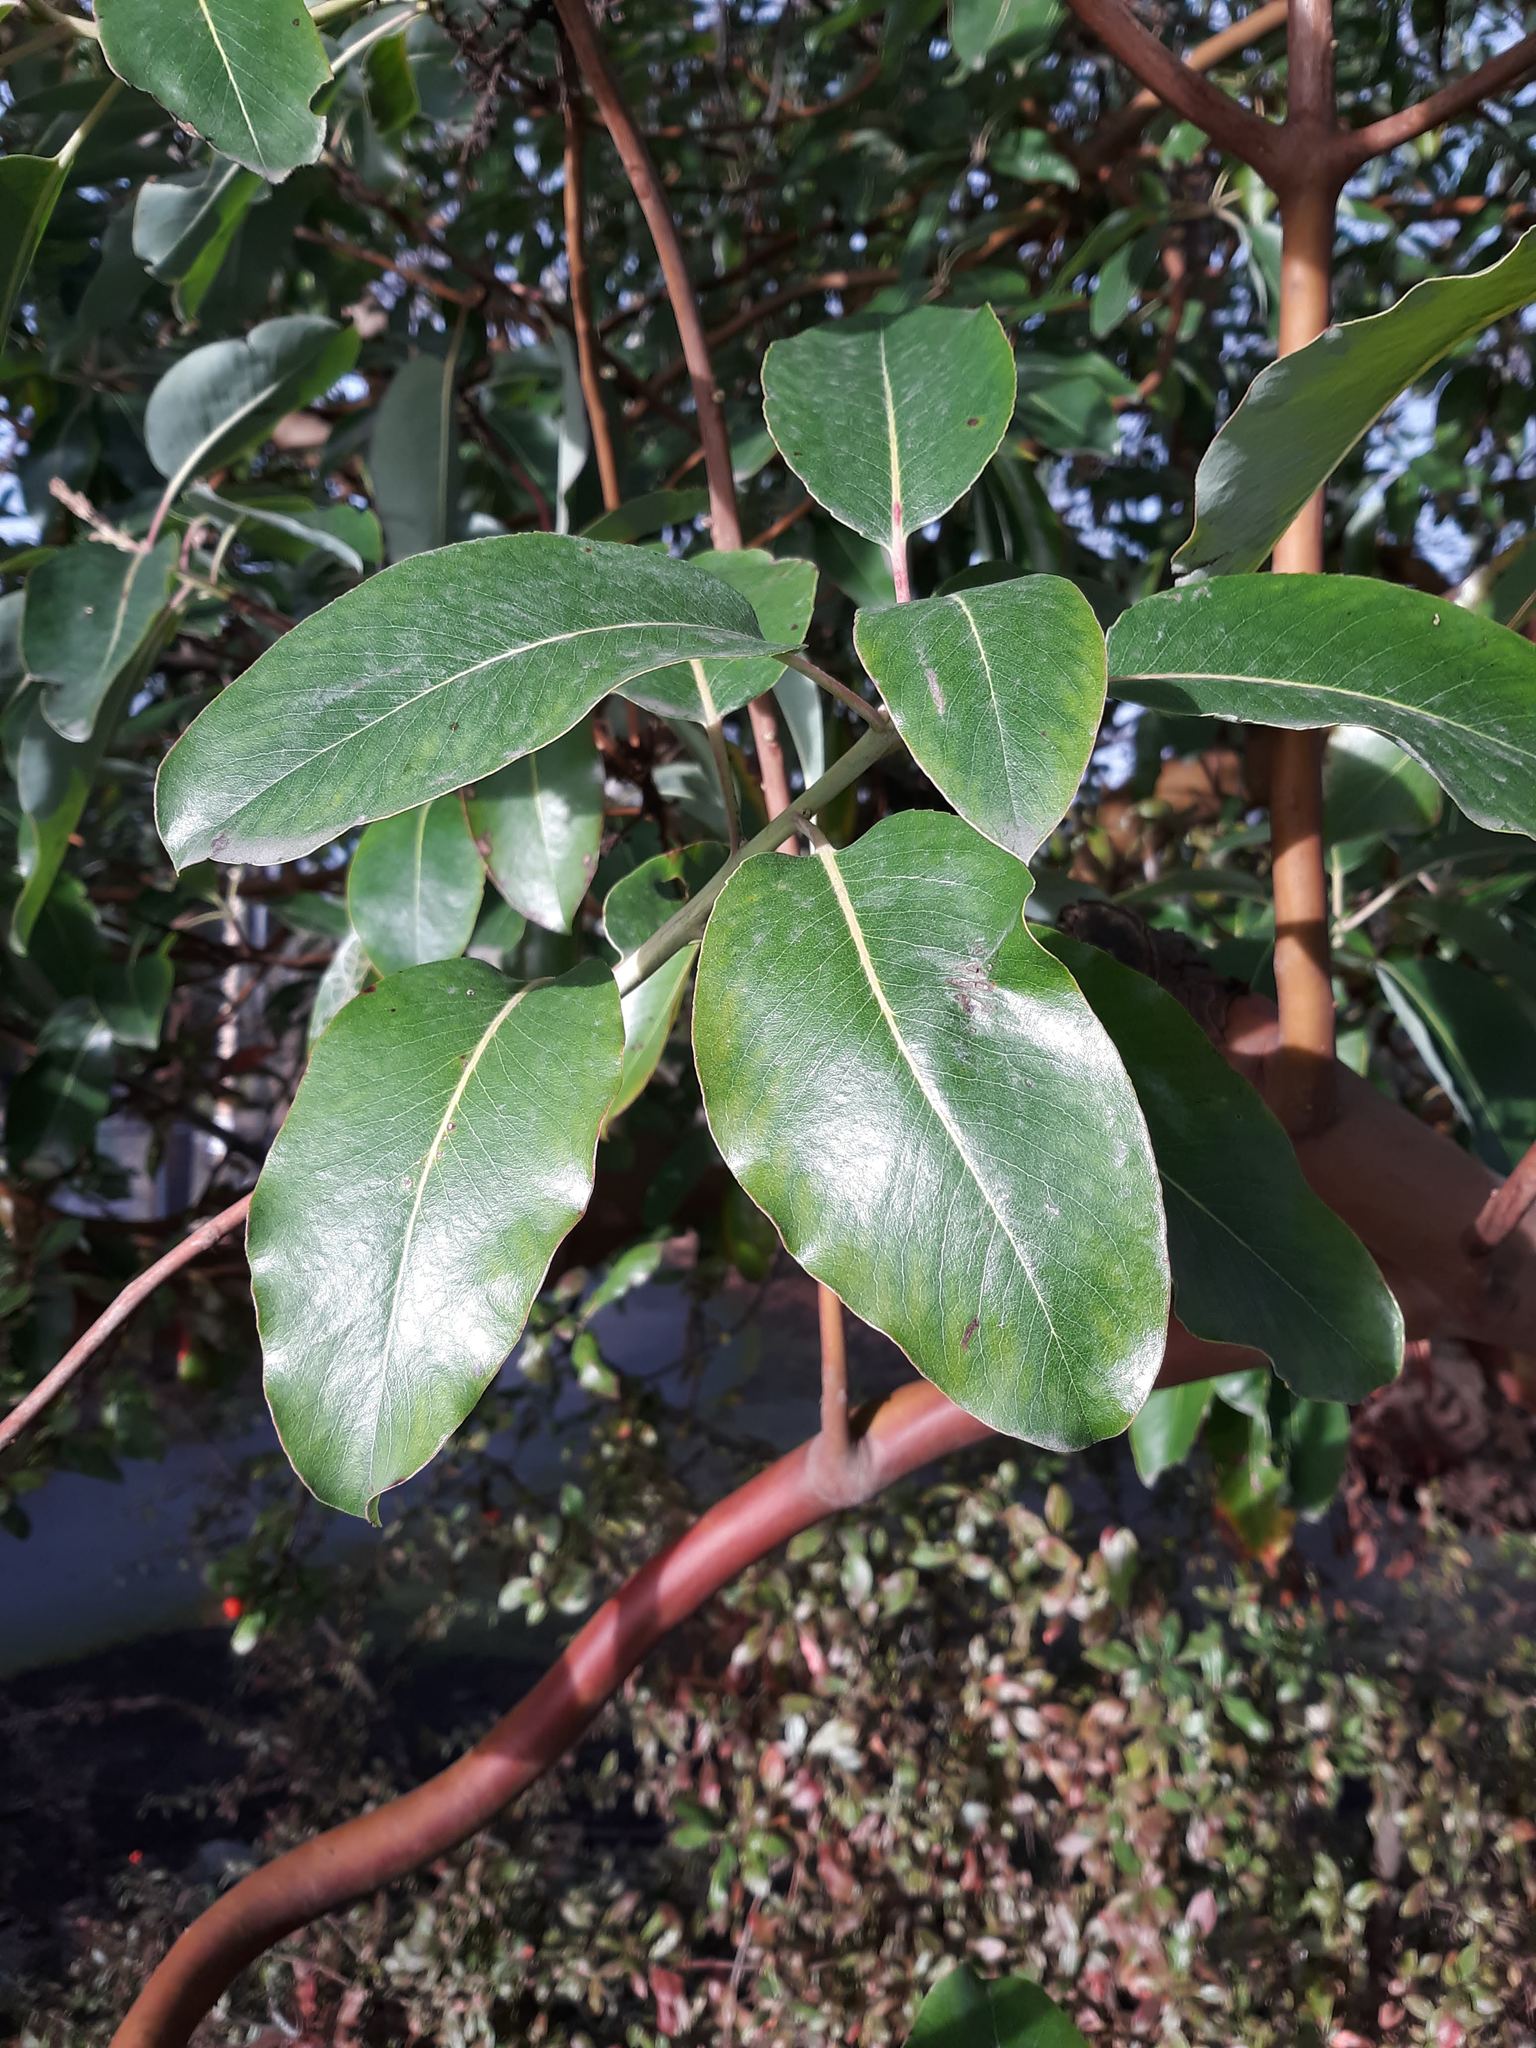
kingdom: Plantae
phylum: Tracheophyta
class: Magnoliopsida
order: Ericales
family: Ericaceae
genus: Arbutus
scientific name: Arbutus menziesii
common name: Pacific madrone
